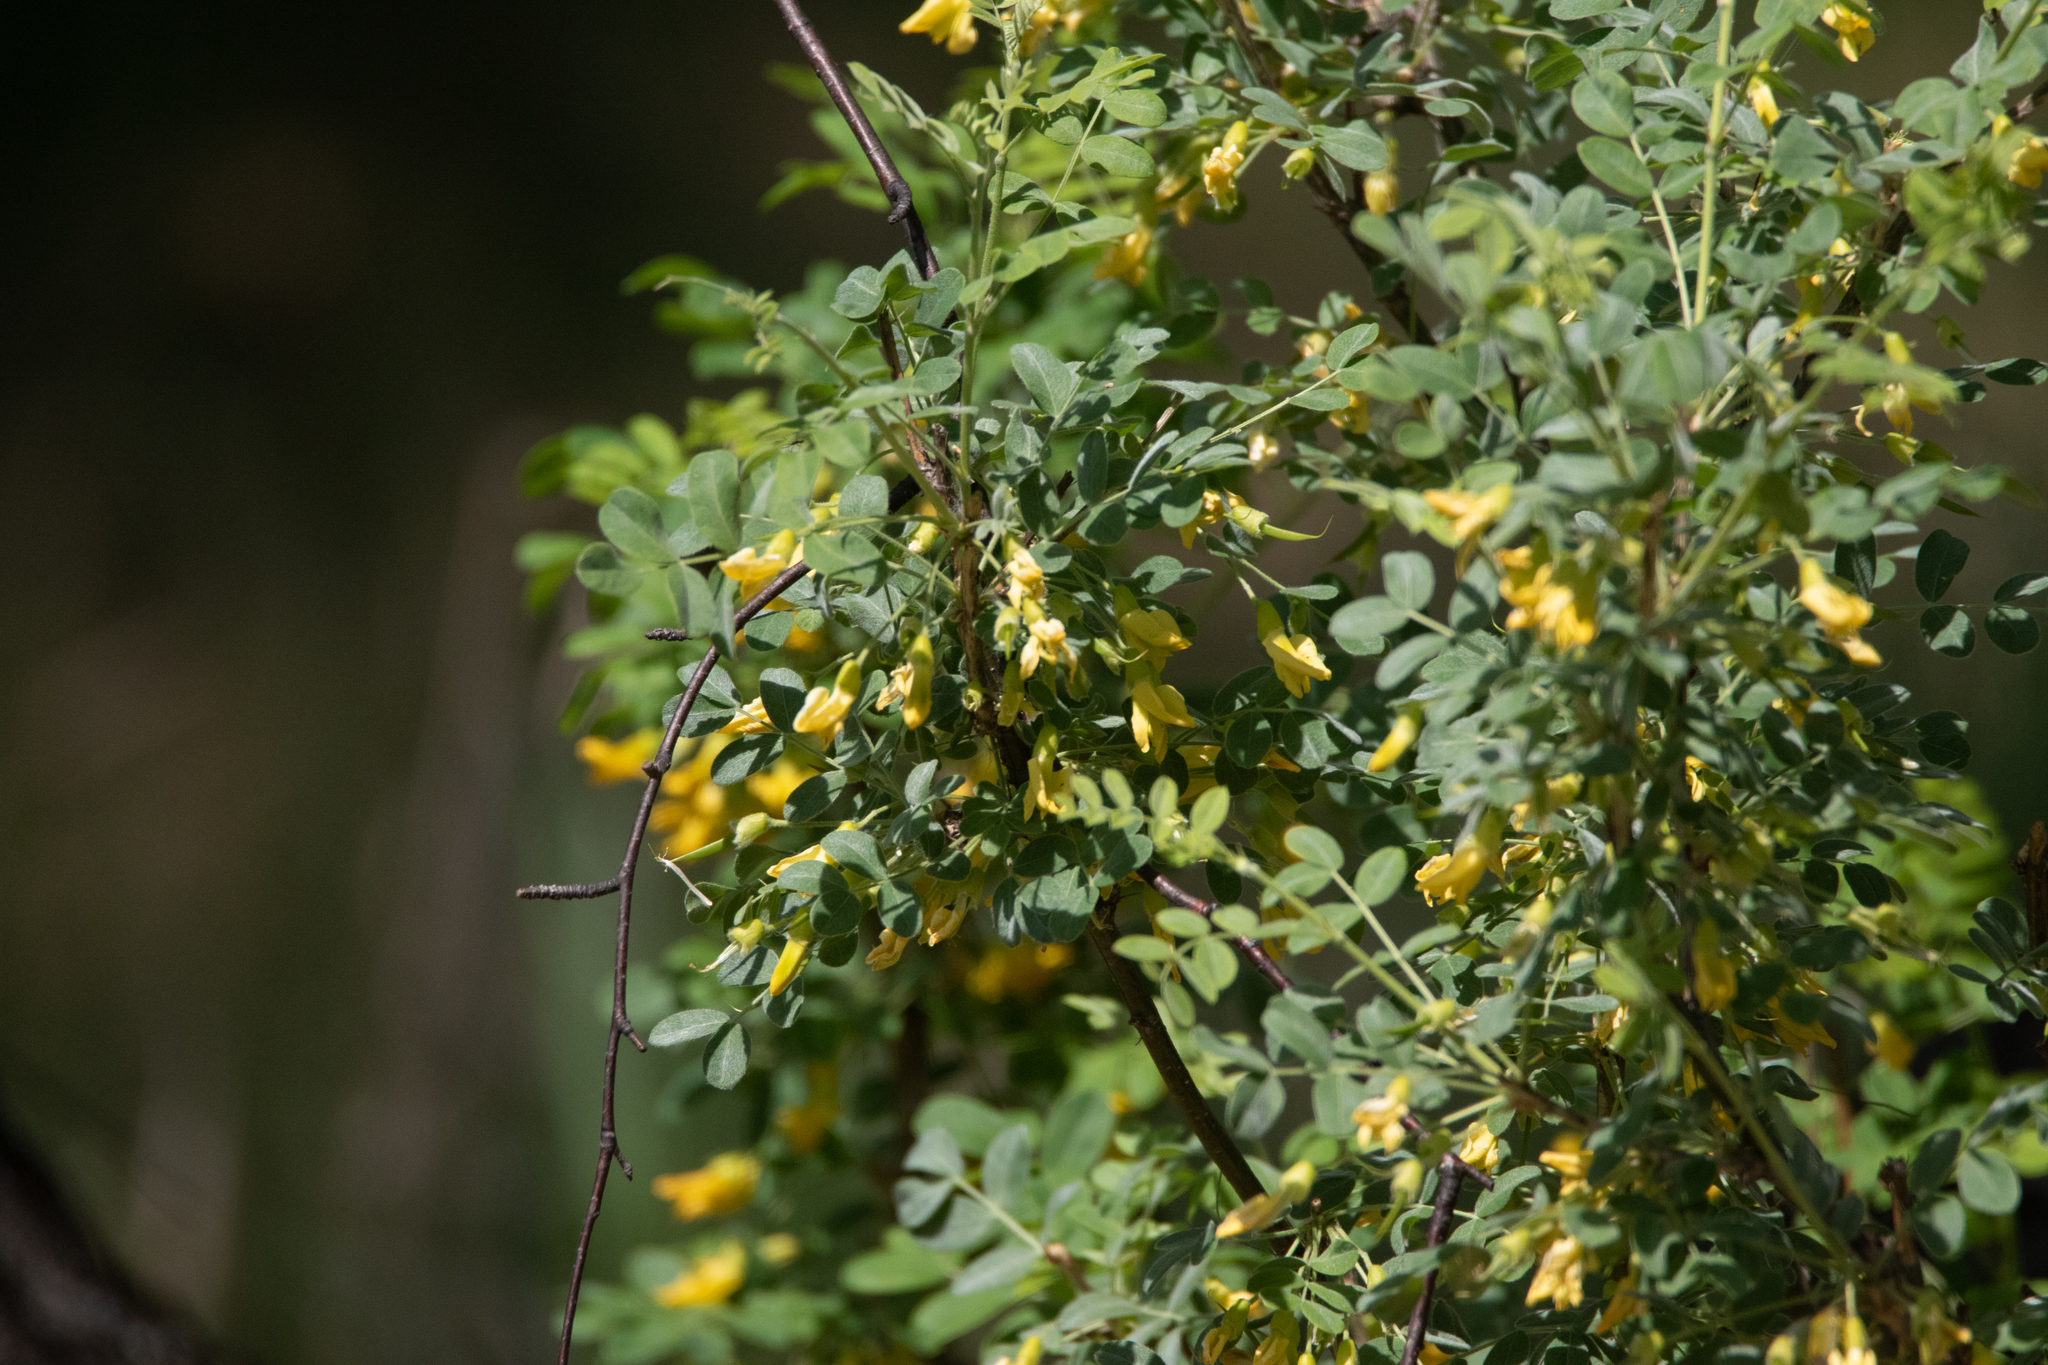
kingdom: Plantae
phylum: Tracheophyta
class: Magnoliopsida
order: Fabales
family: Fabaceae
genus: Caragana
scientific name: Caragana arborescens
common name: Siberian peashrub
